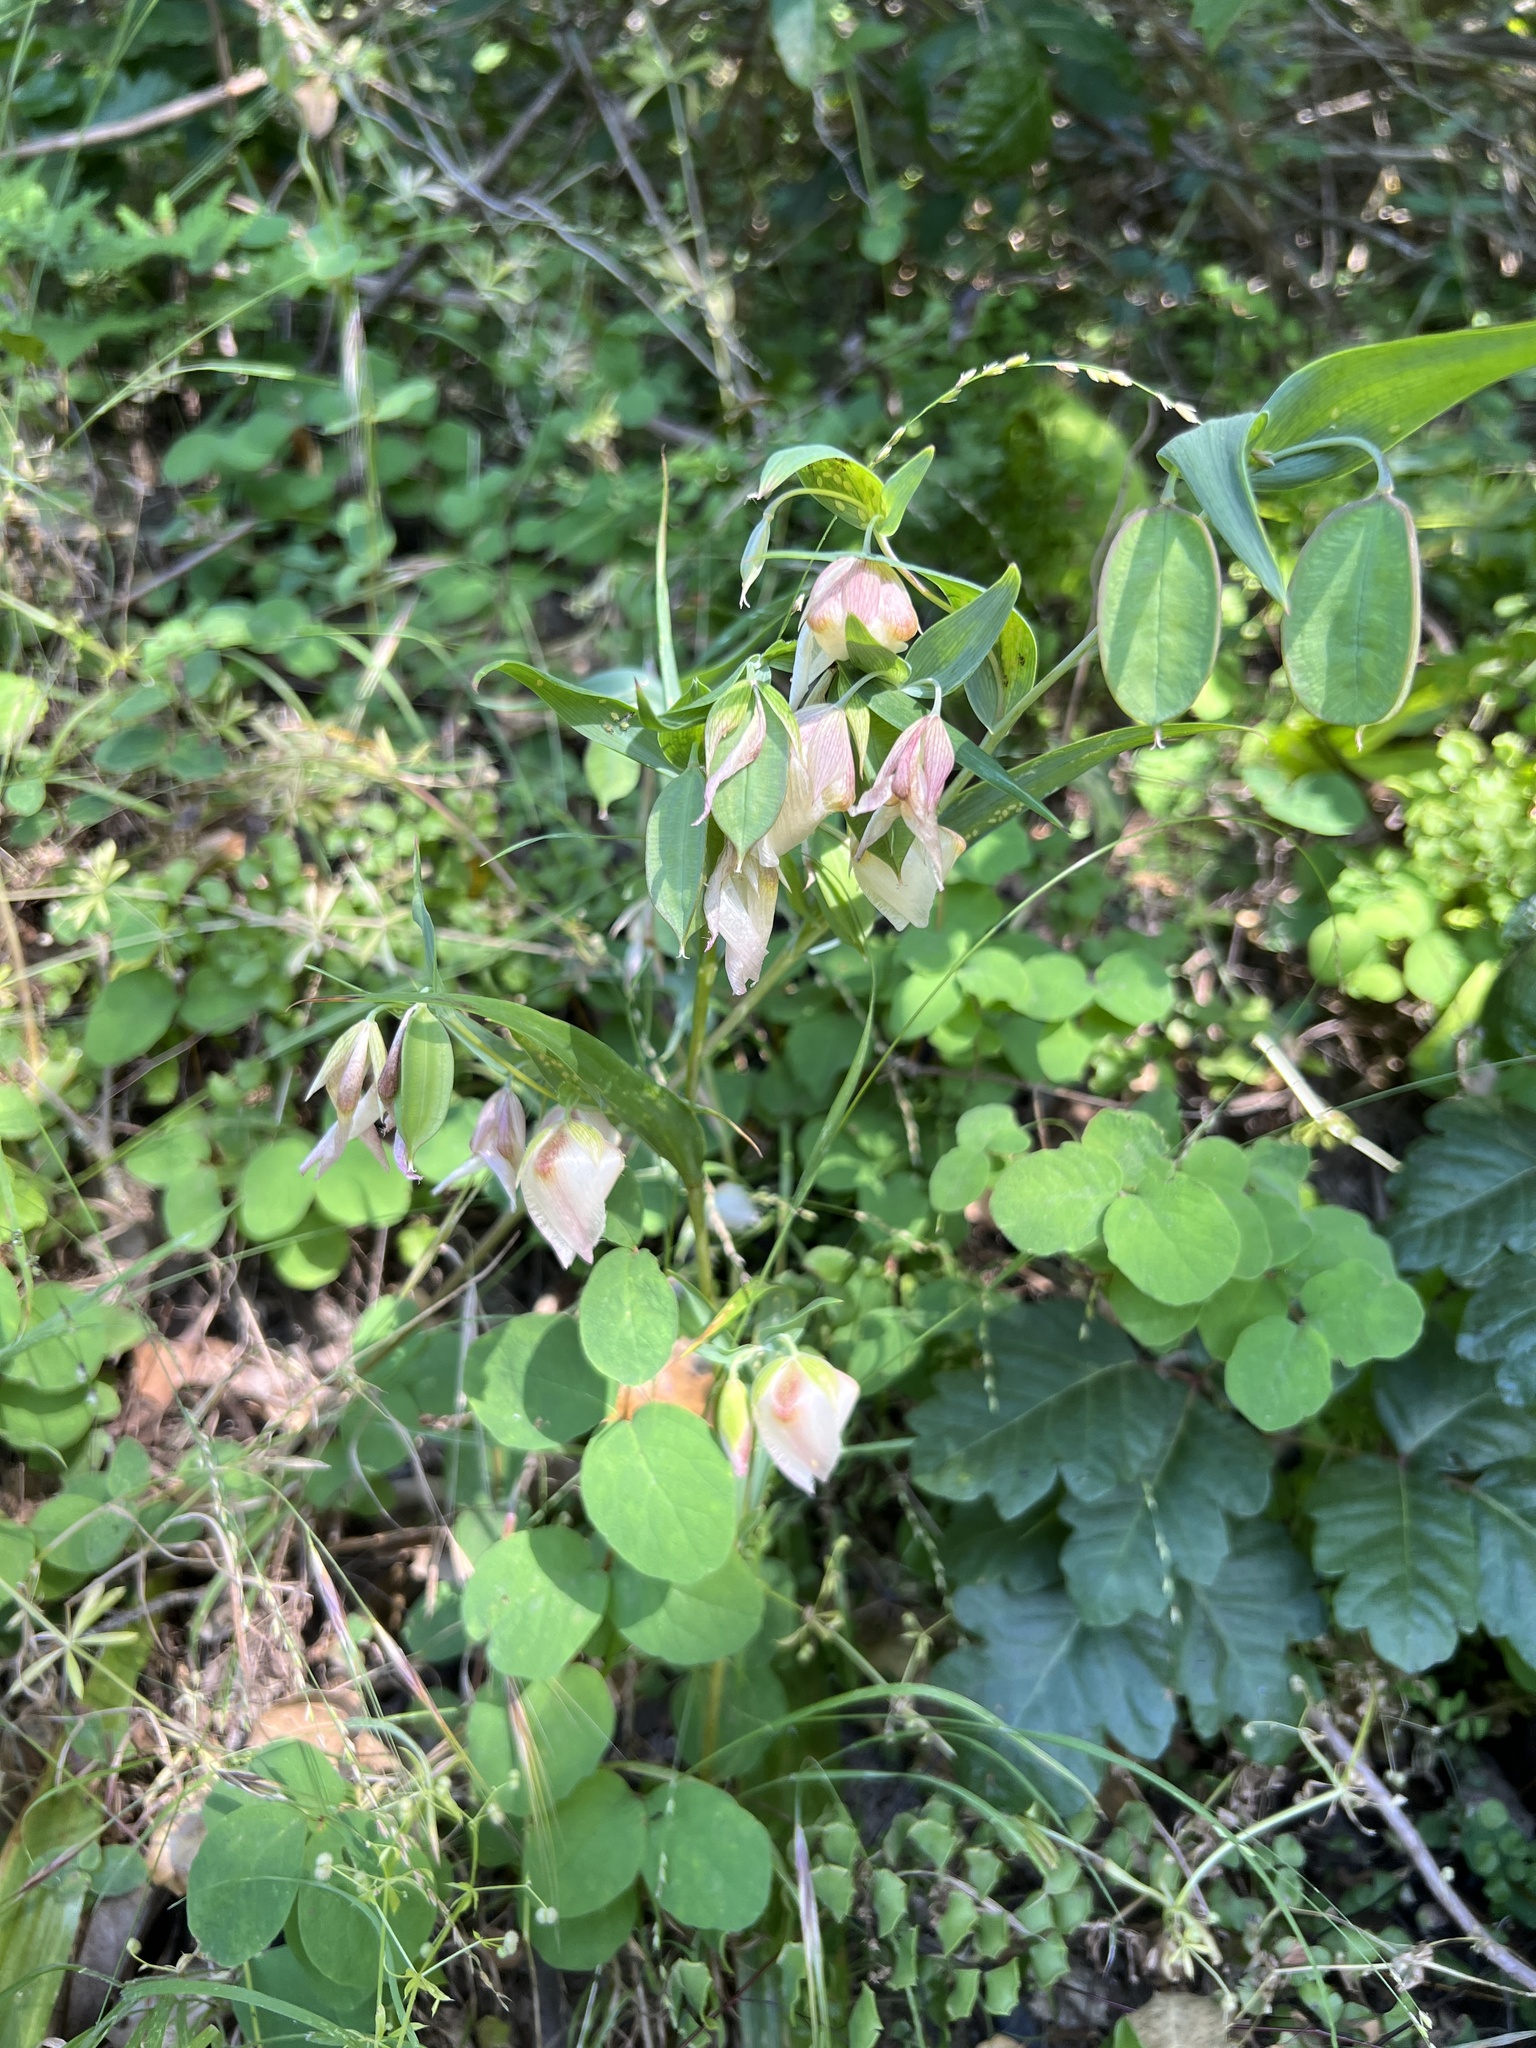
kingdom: Plantae
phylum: Tracheophyta
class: Liliopsida
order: Liliales
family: Liliaceae
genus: Calochortus
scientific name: Calochortus albus
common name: Fairy-lantern
